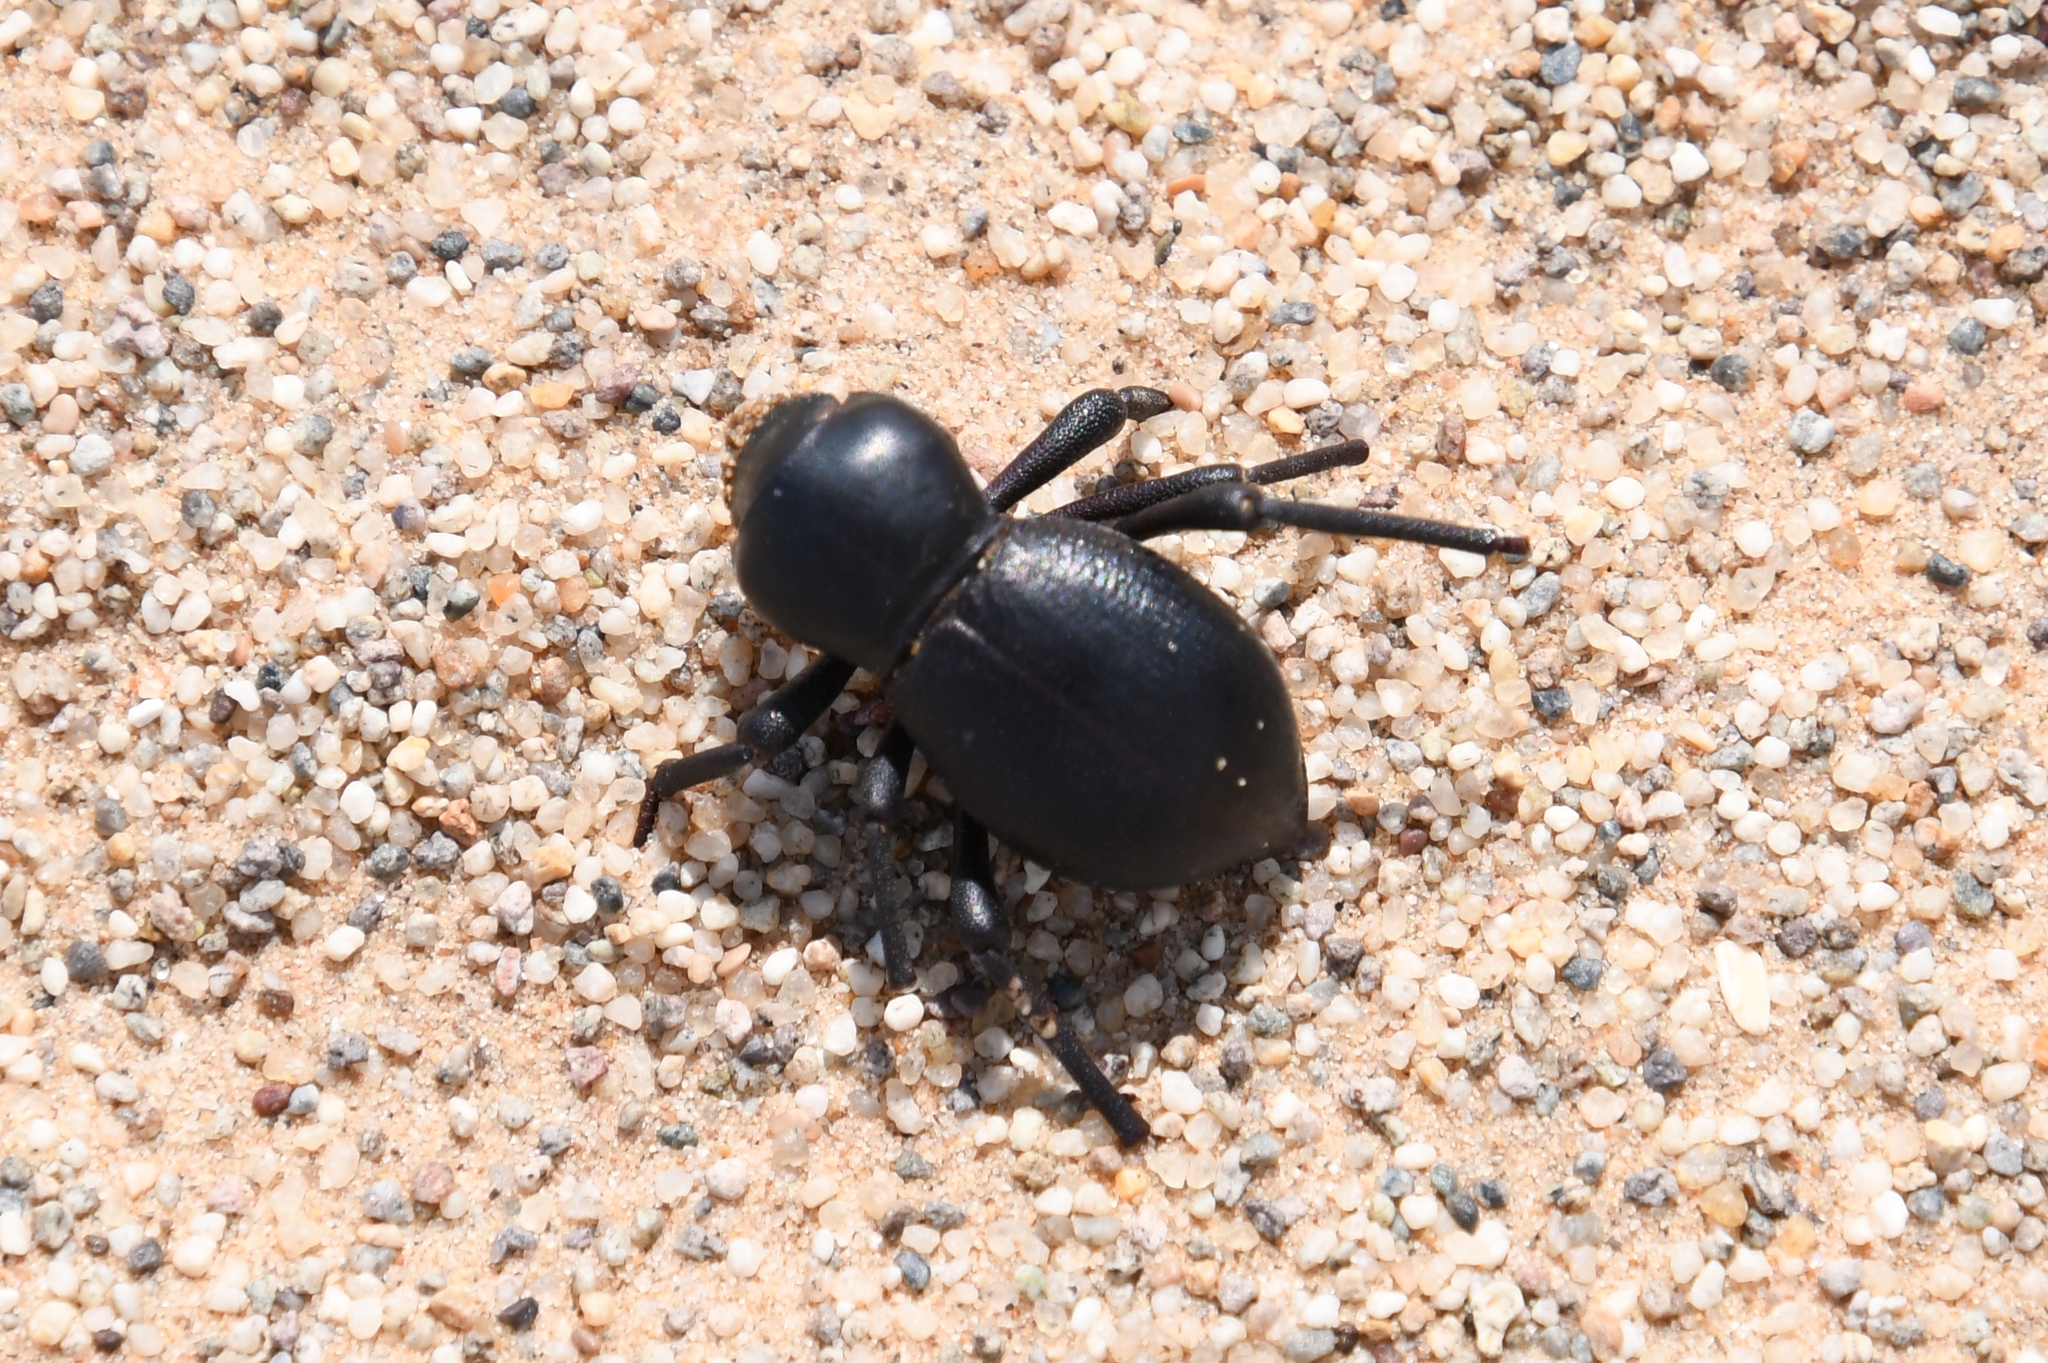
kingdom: Animalia
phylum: Arthropoda
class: Insecta
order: Coleoptera
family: Tenebrionidae
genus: Asbolus
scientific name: Asbolus papillosus
